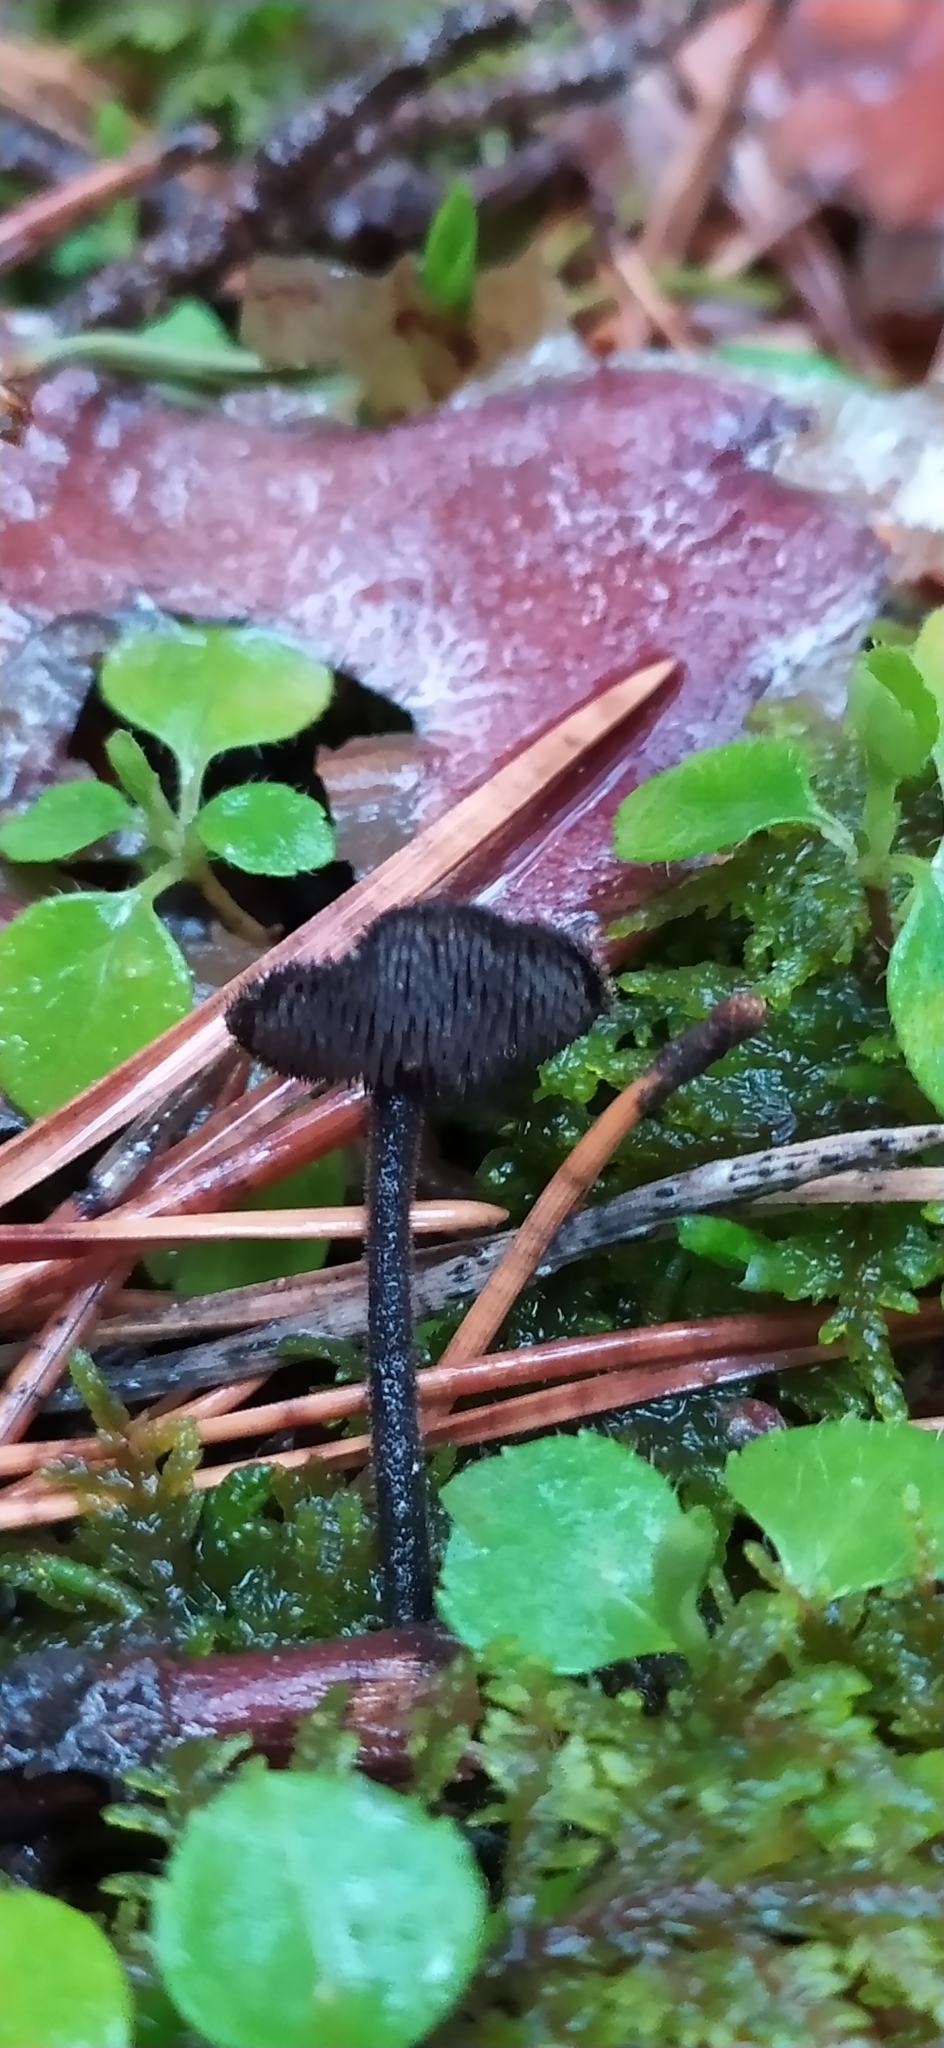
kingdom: Fungi
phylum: Basidiomycota
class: Agaricomycetes
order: Russulales
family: Auriscalpiaceae
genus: Auriscalpium
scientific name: Auriscalpium vulgare
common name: Earpick fungus
